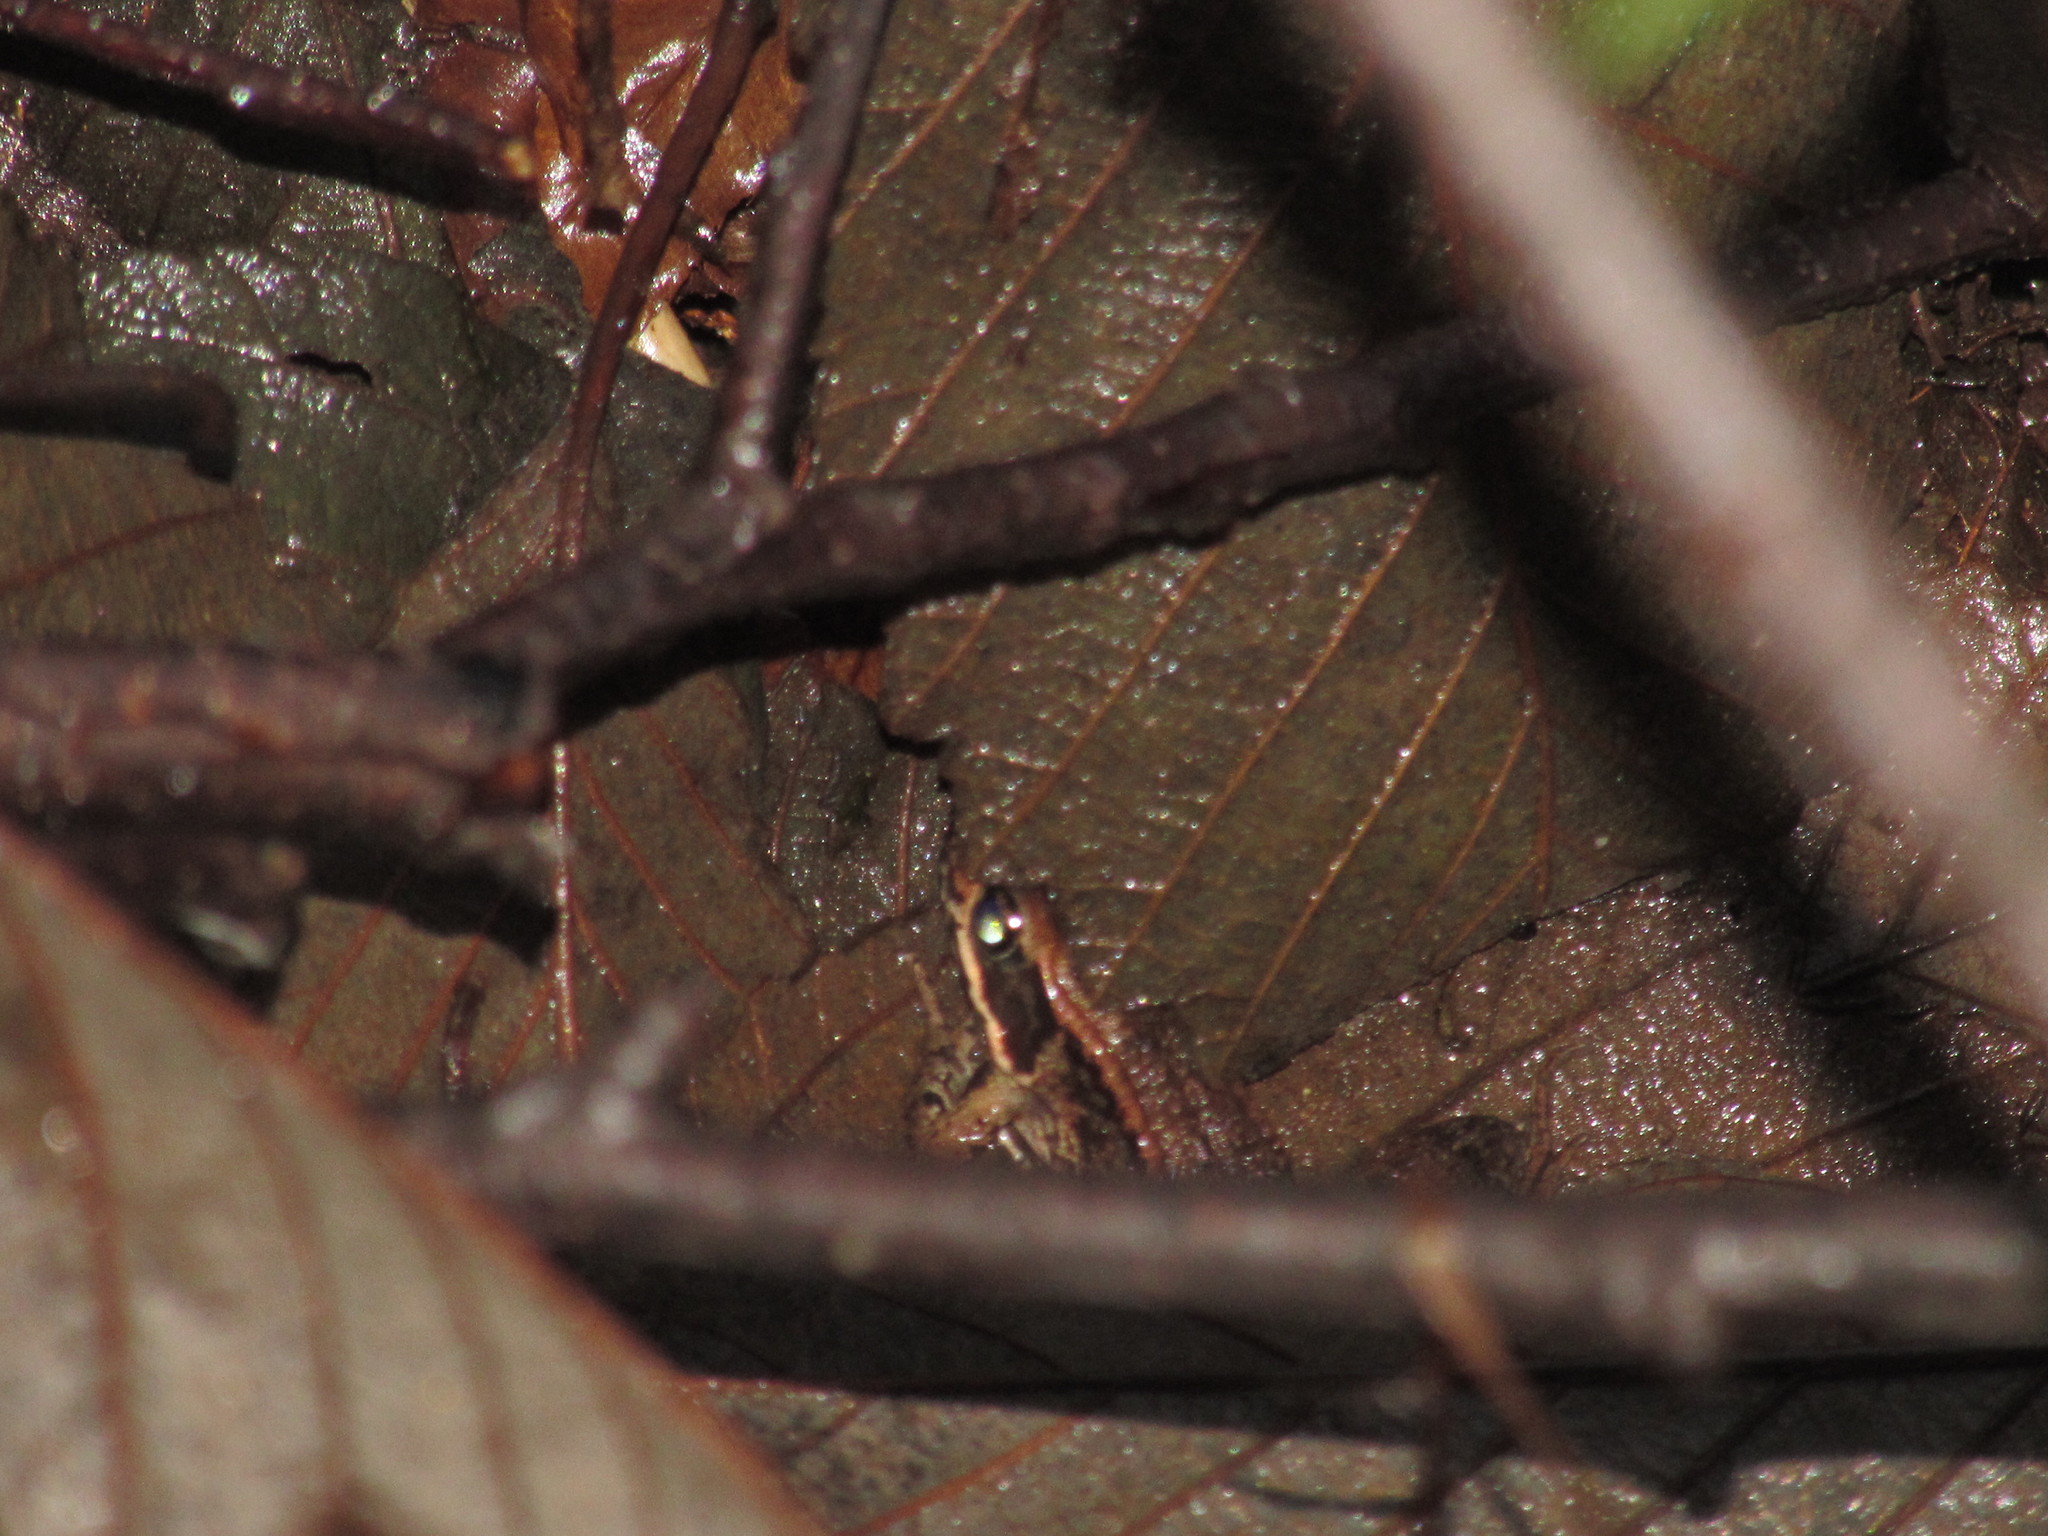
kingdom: Animalia
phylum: Chordata
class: Amphibia
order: Anura
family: Ranidae
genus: Rana
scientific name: Rana aurora
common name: Red-legged frog
